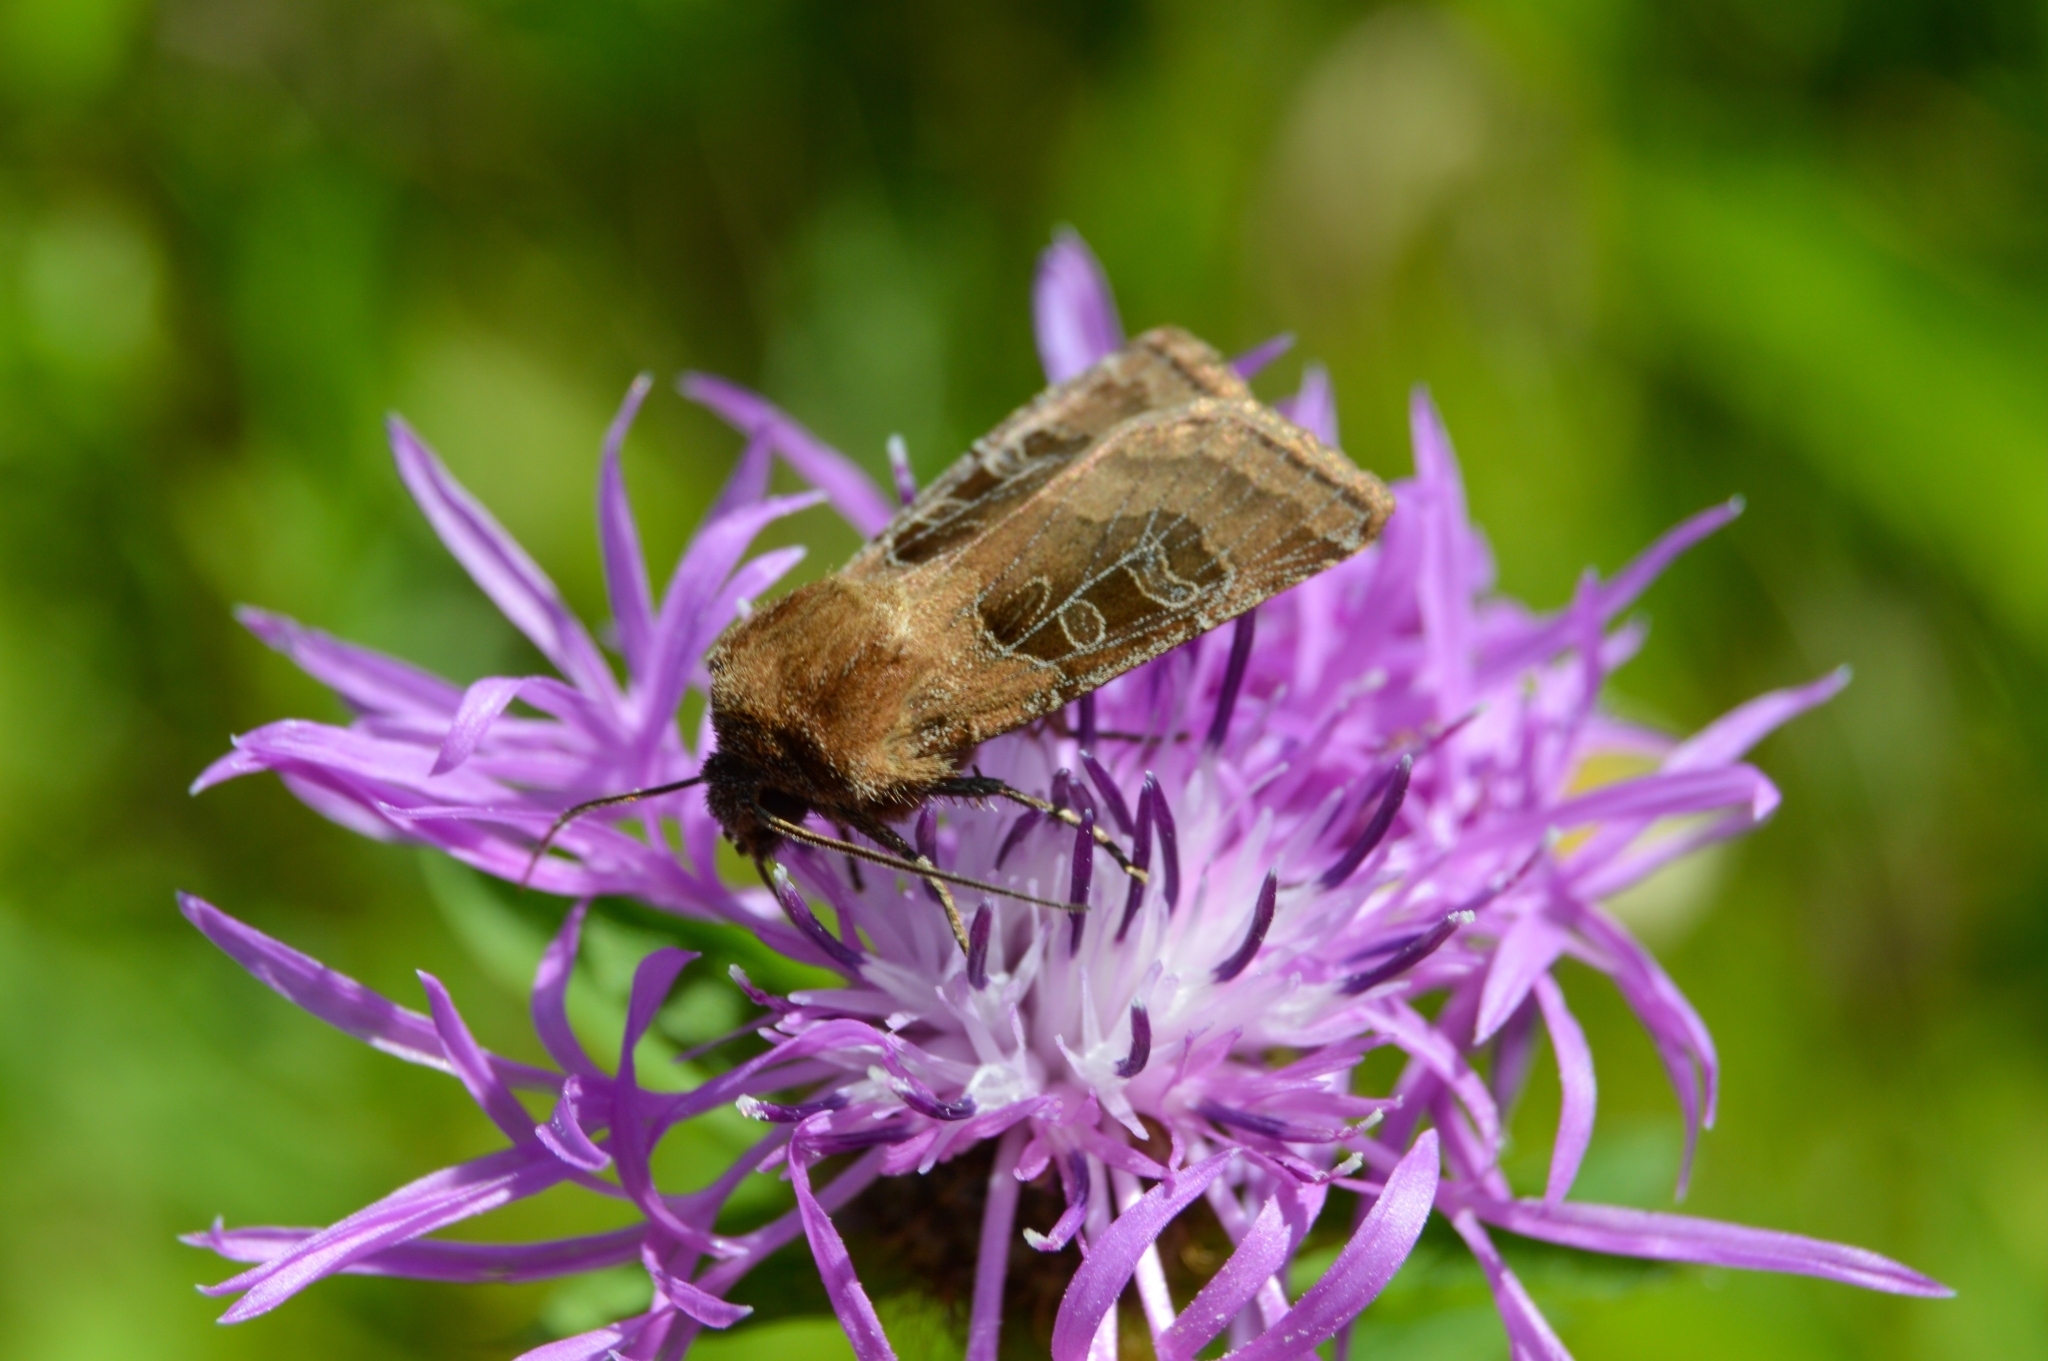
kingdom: Animalia
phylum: Arthropoda
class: Insecta
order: Lepidoptera
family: Noctuidae
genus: Chersotis
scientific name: Chersotis cuprea
